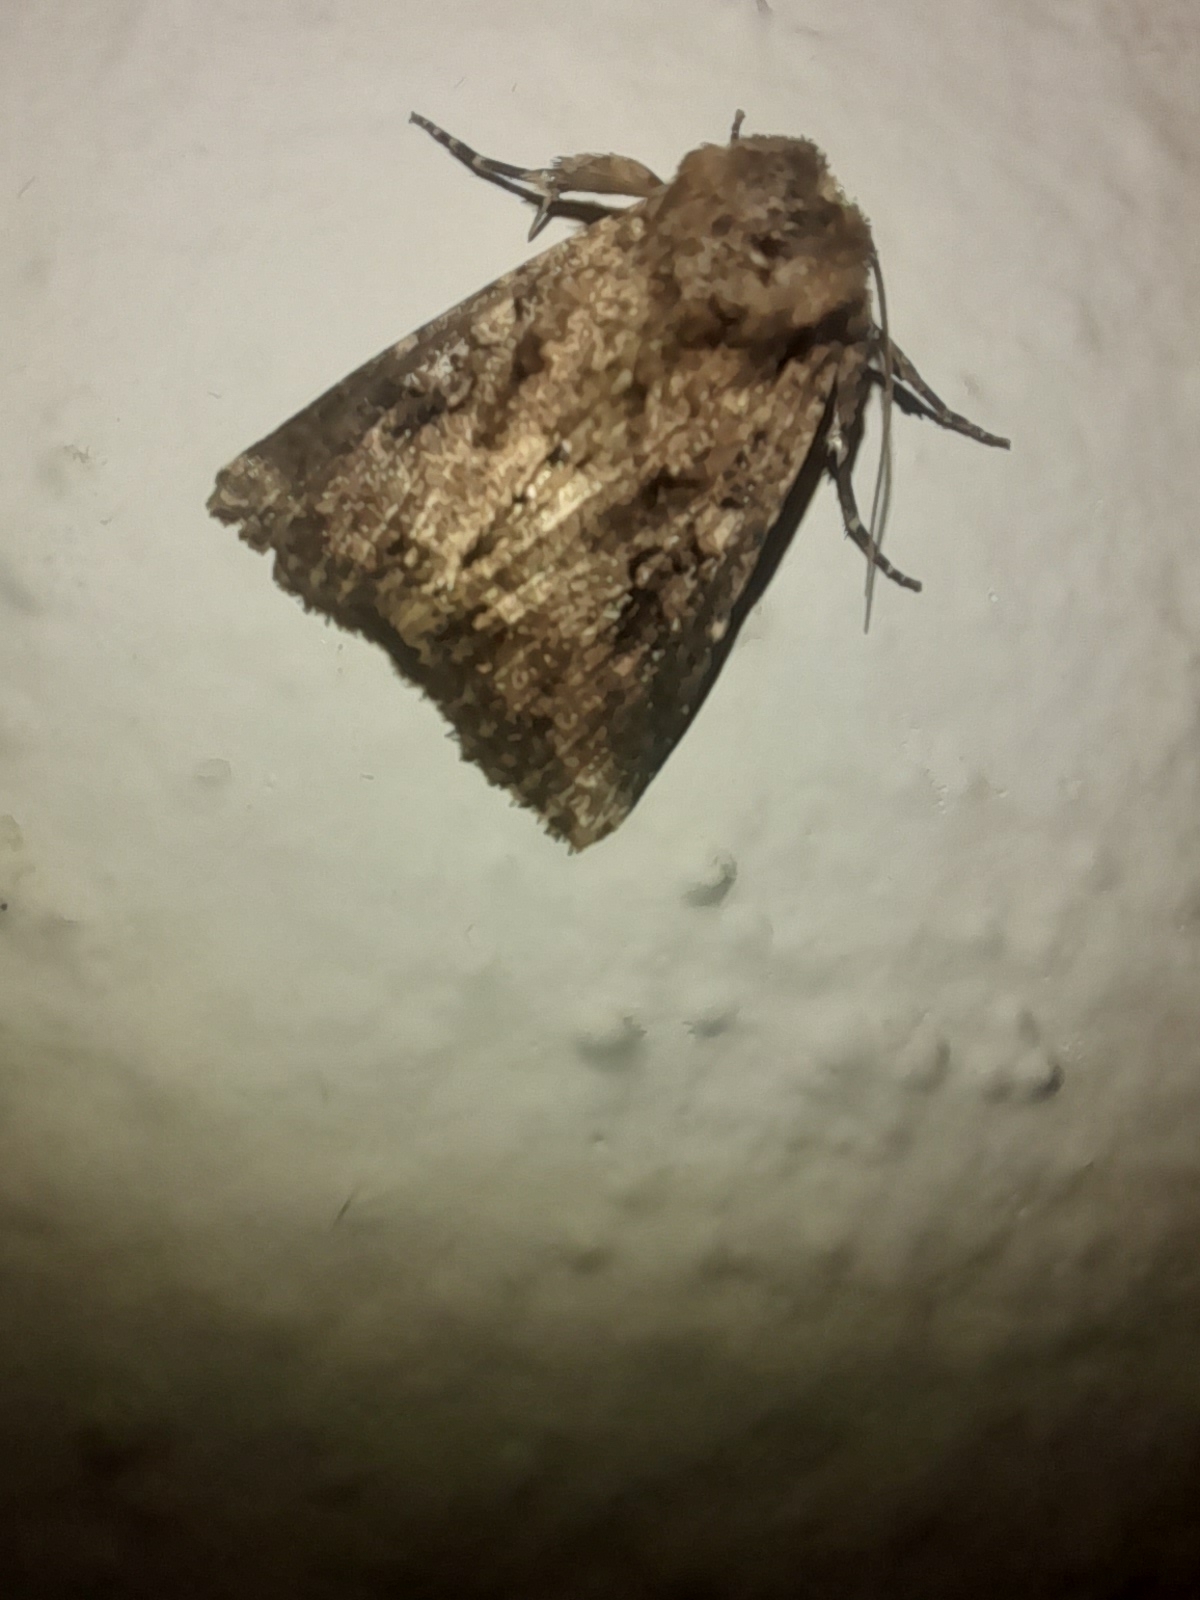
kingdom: Animalia
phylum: Arthropoda
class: Insecta
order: Lepidoptera
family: Noctuidae
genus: Mythimna
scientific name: Mythimna languida
